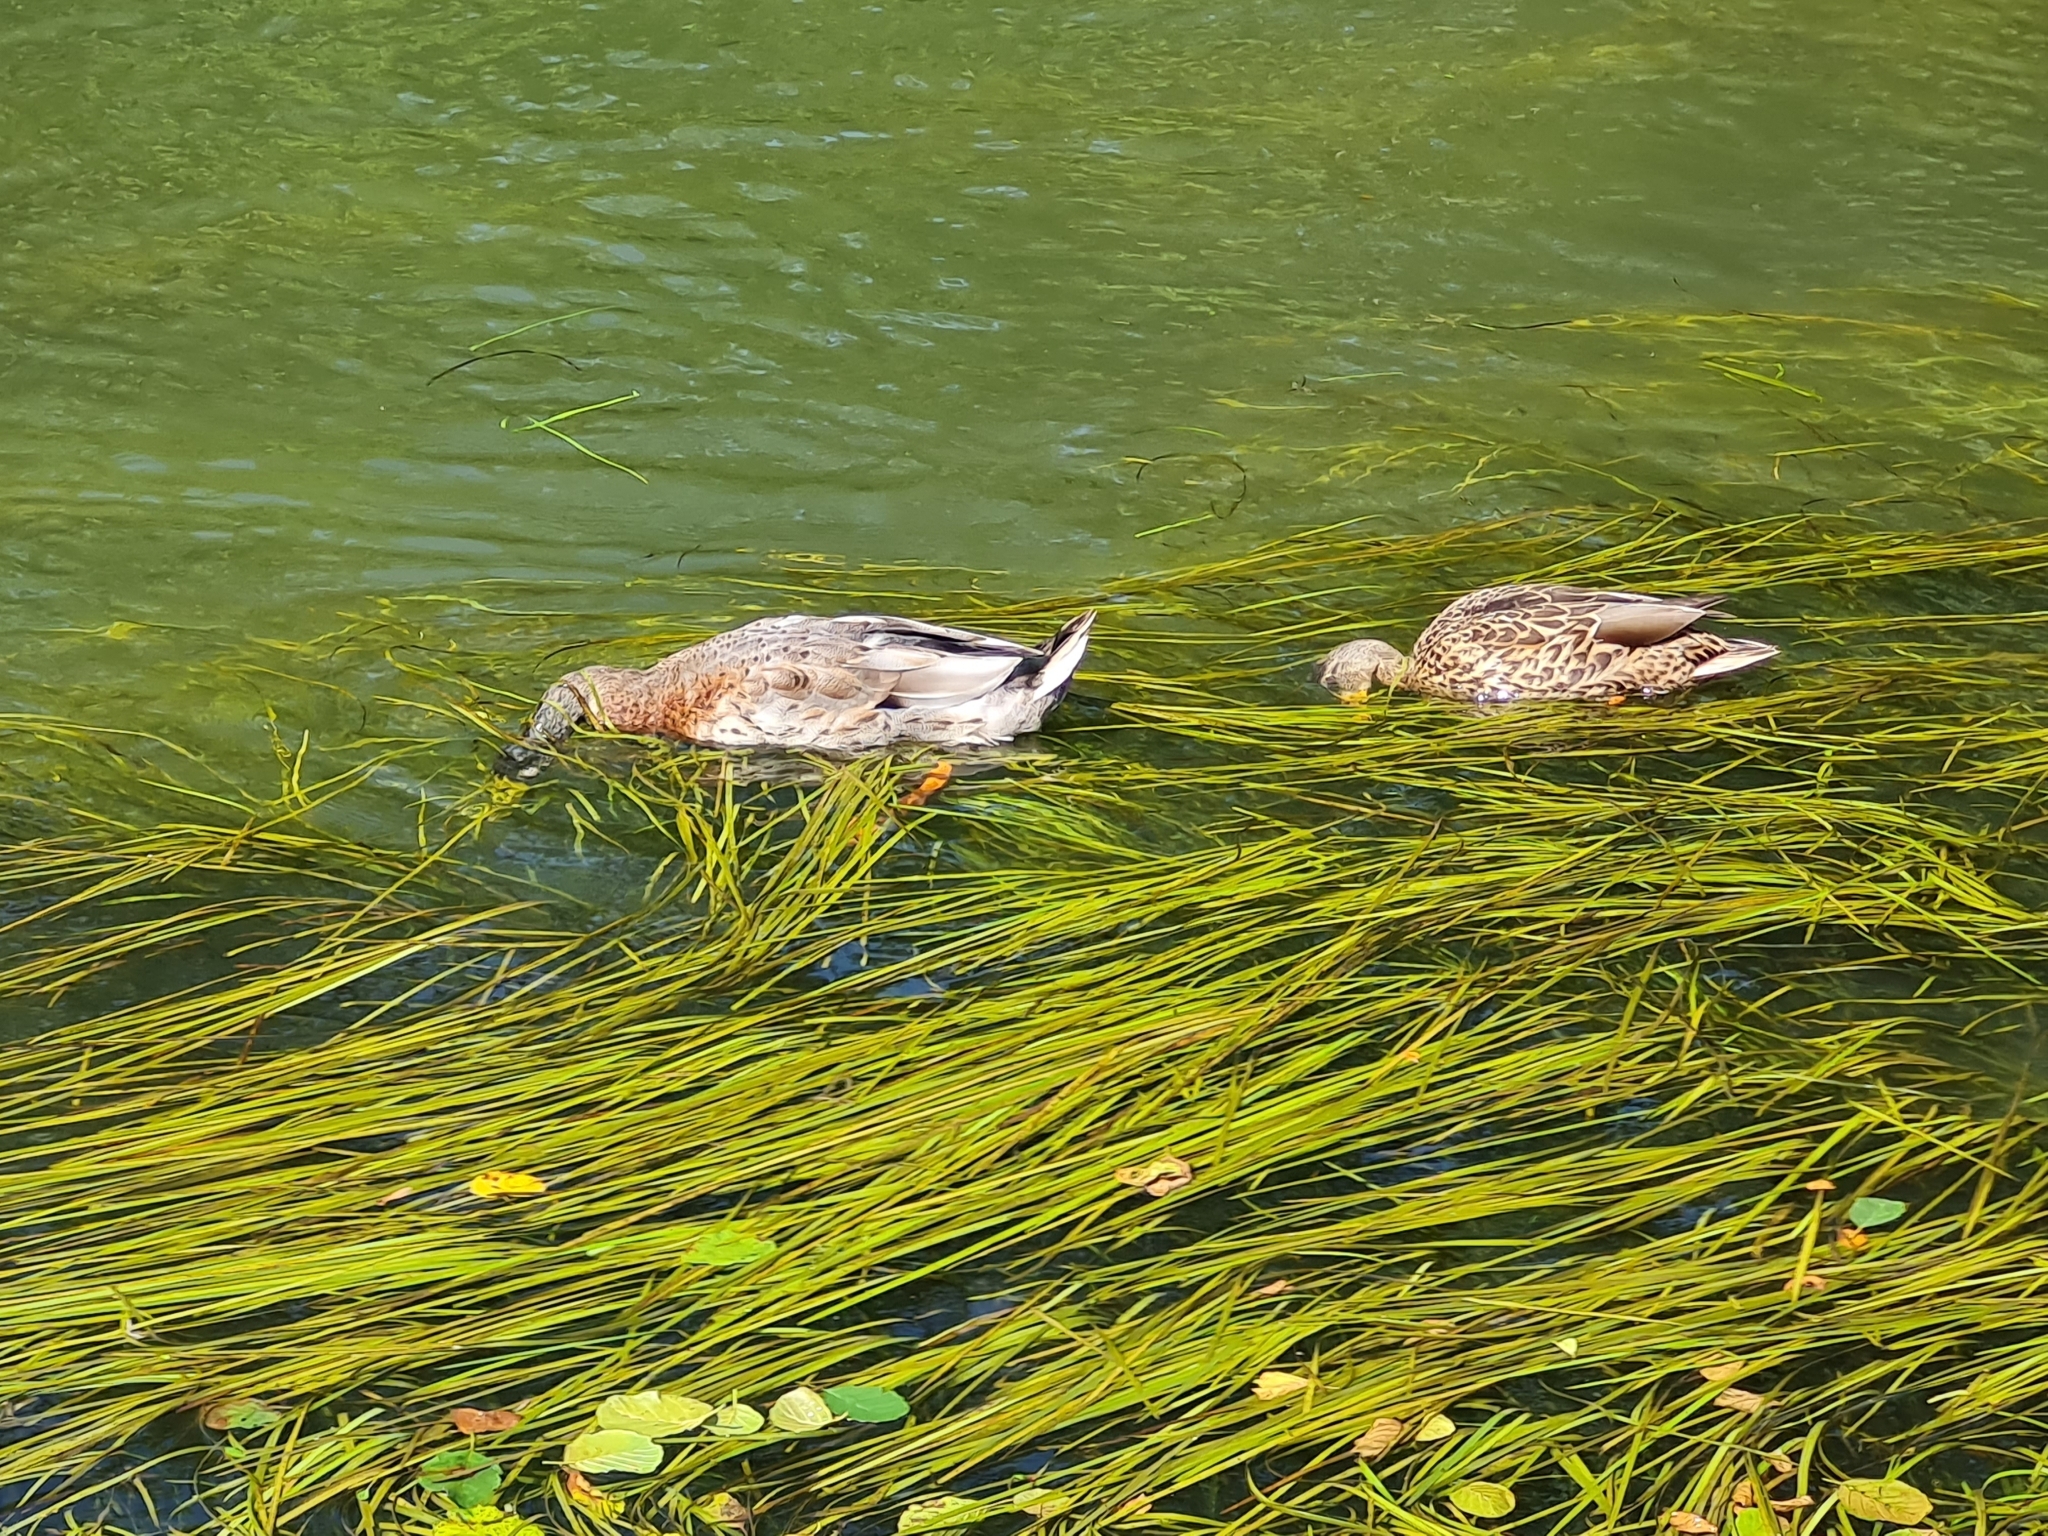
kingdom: Animalia
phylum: Chordata
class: Aves
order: Anseriformes
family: Anatidae
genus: Anas
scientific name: Anas platyrhynchos
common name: Mallard
